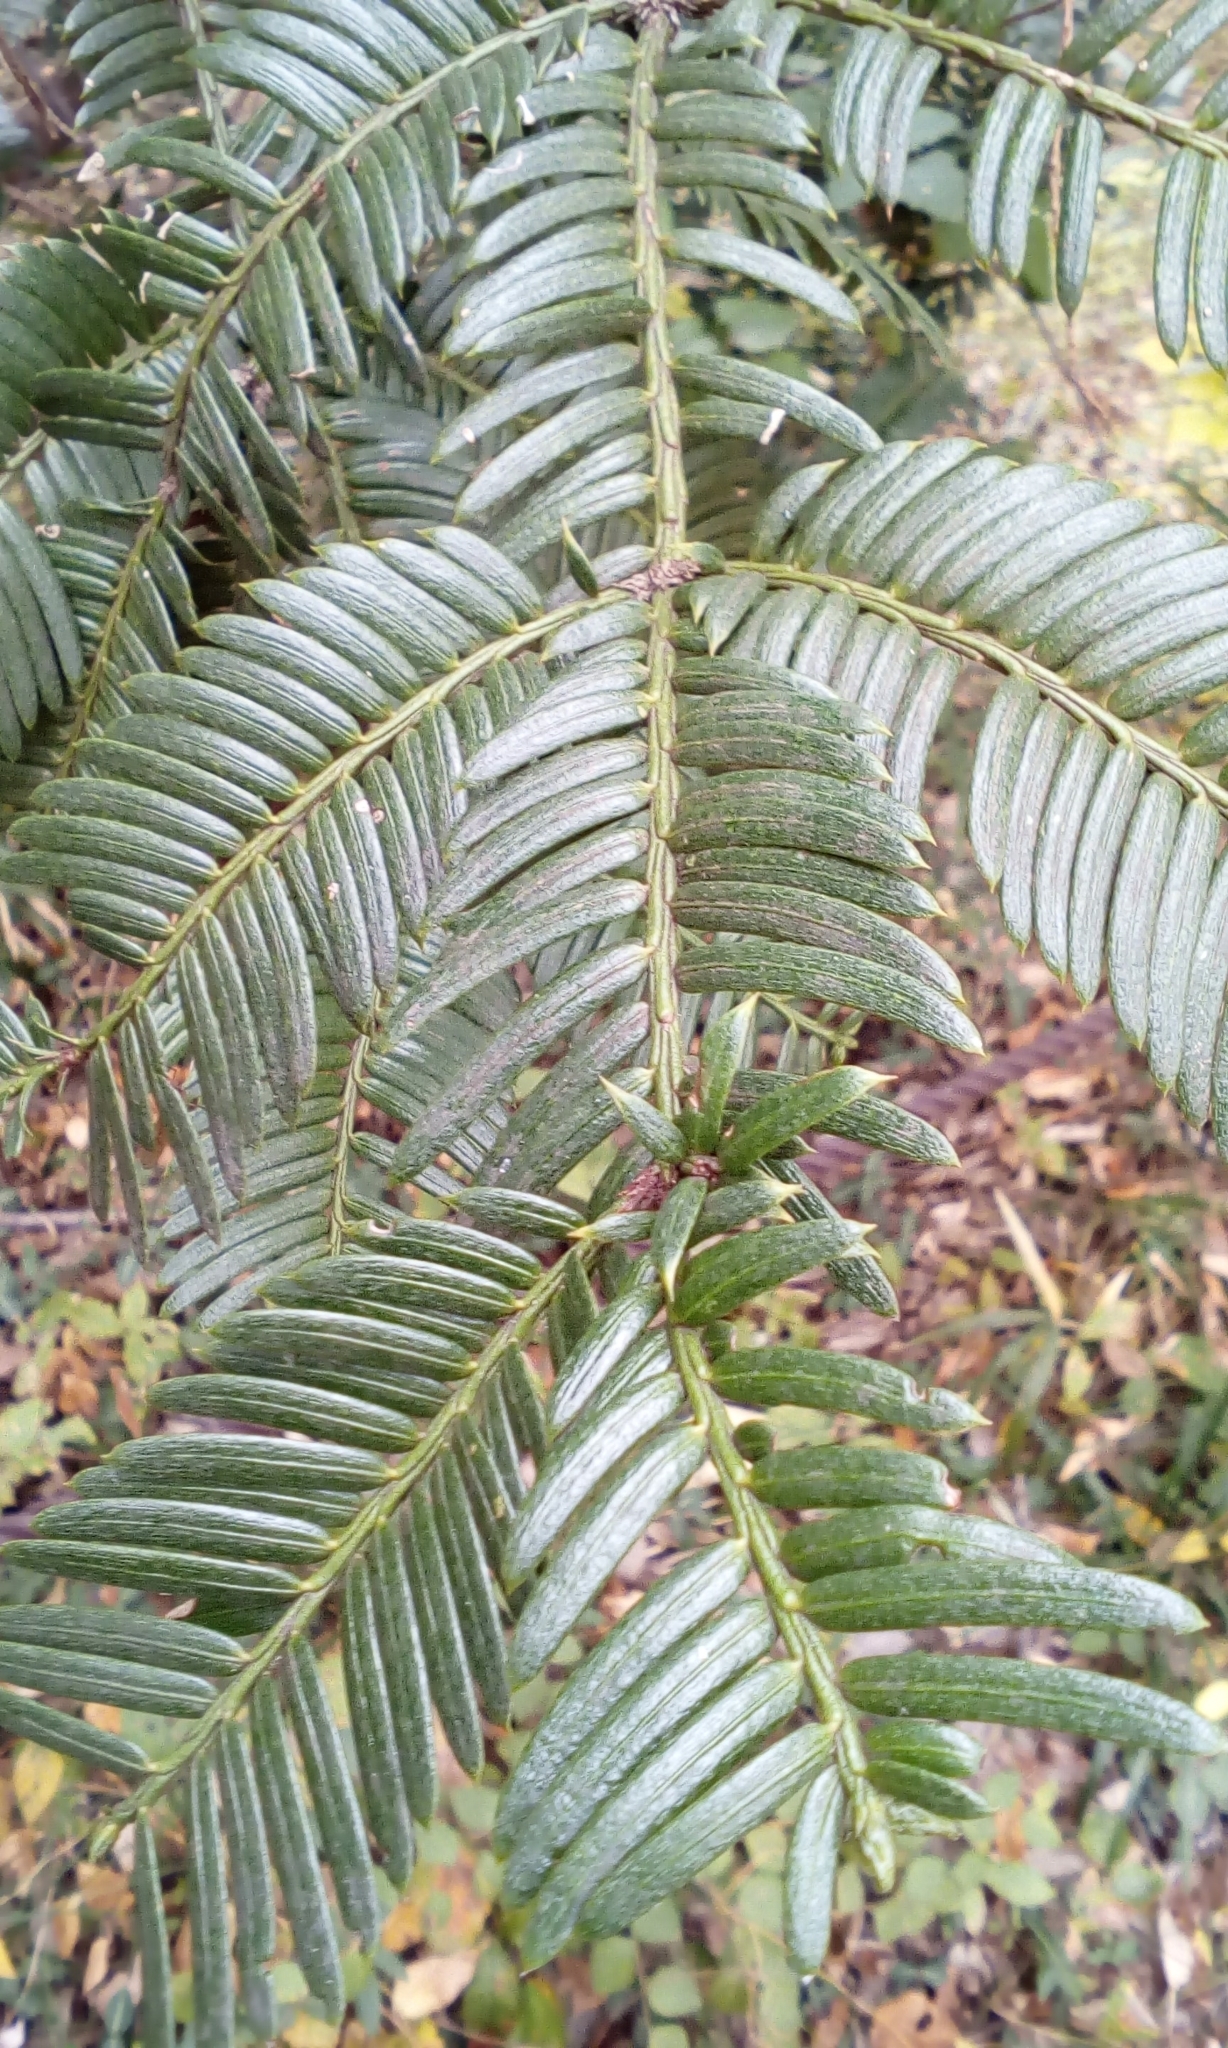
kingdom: Plantae
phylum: Tracheophyta
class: Pinopsida
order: Pinales
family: Cephalotaxaceae
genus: Cephalotaxus
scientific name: Cephalotaxus harringtonia
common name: Japanese plum-yew
